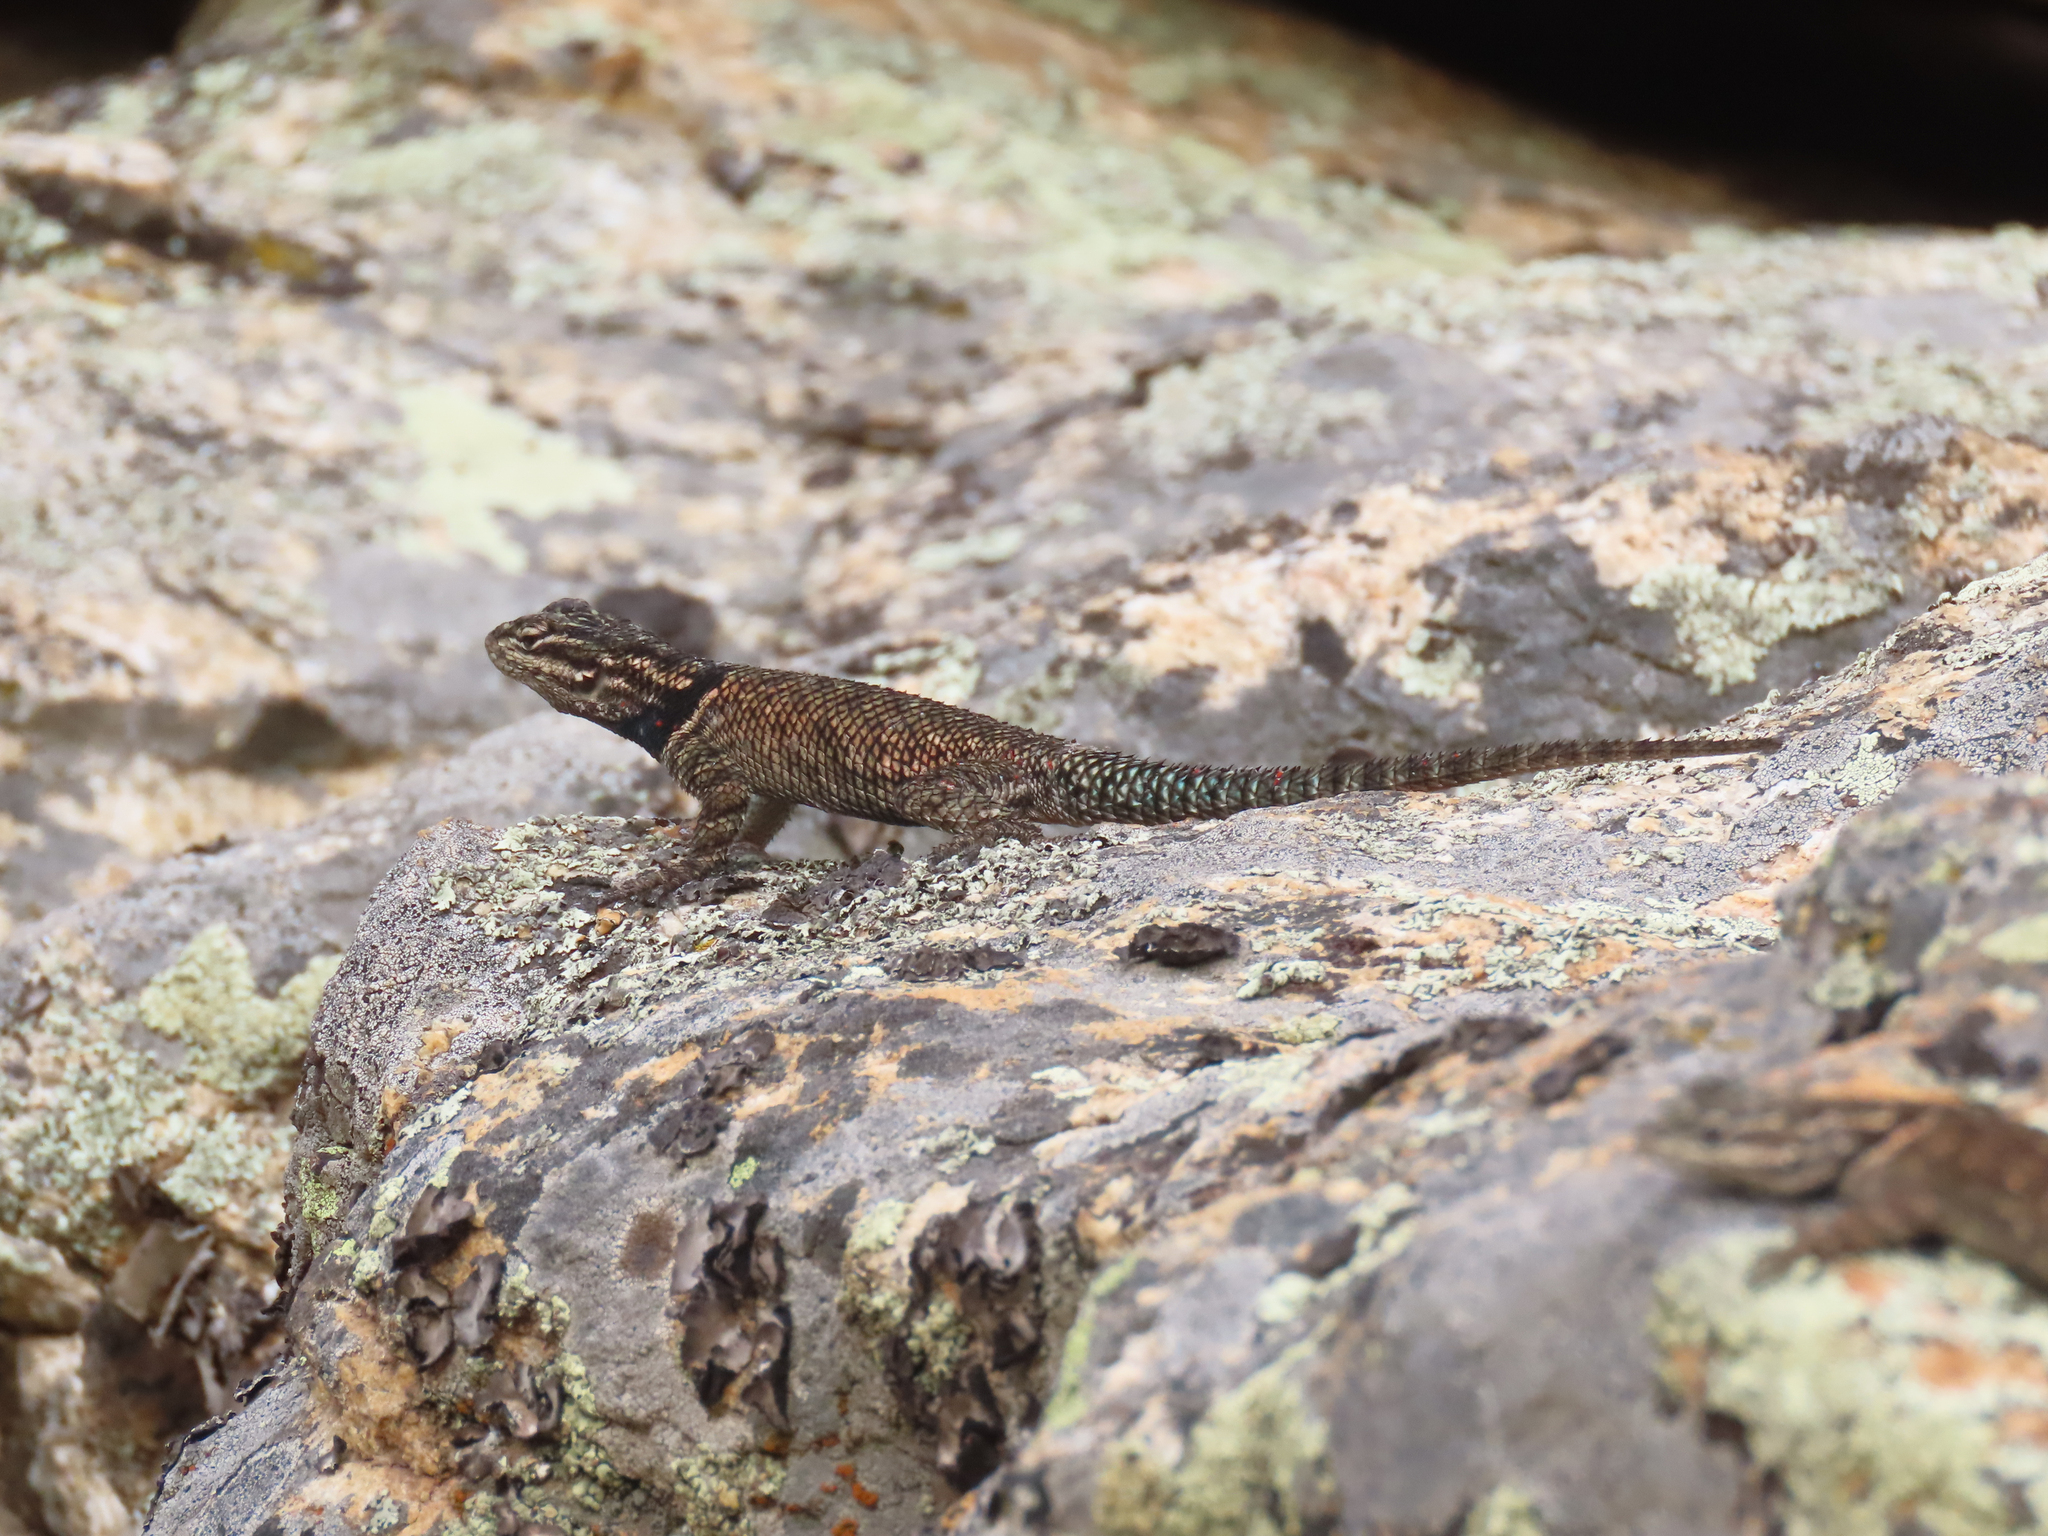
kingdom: Animalia
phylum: Chordata
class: Squamata
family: Phrynosomatidae
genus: Sceloporus
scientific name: Sceloporus jarrovii
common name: Yarrow's spiny lizard
